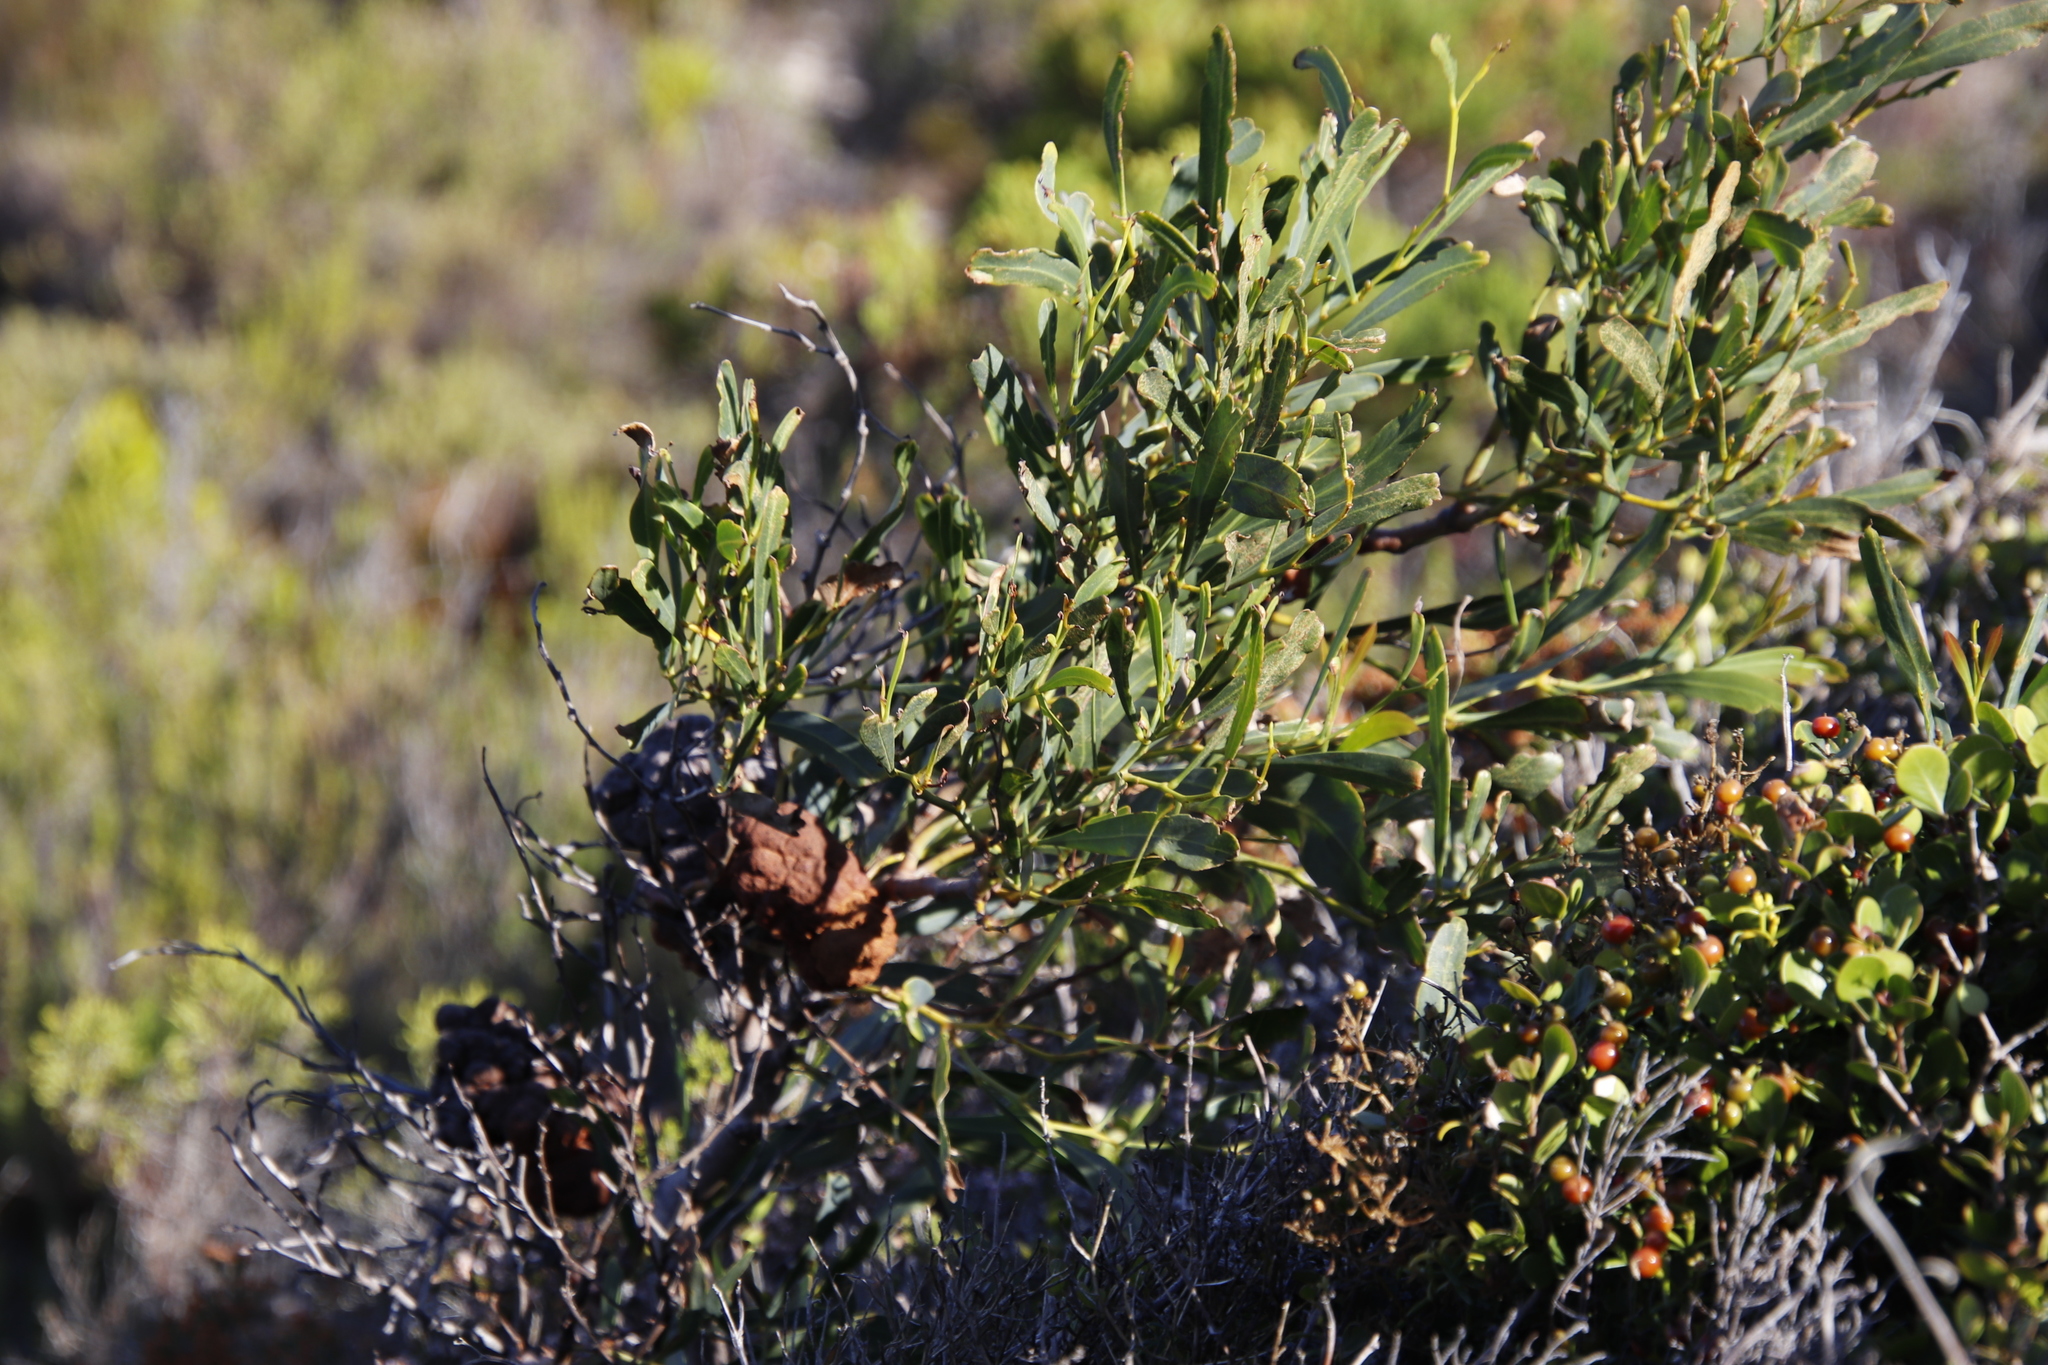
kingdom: Plantae
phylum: Tracheophyta
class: Magnoliopsida
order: Fabales
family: Fabaceae
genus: Acacia
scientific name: Acacia saligna
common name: Orange wattle
